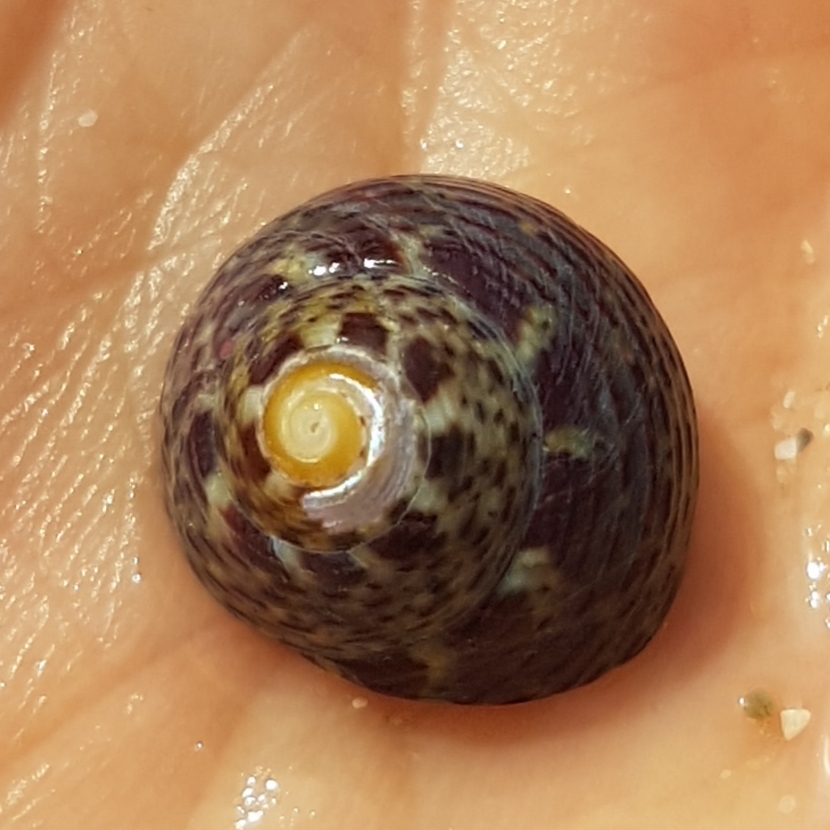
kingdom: Animalia
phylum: Mollusca
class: Gastropoda
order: Trochida
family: Trochidae
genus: Steromphala
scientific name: Steromphala pennanti
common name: Pennant's top shell
